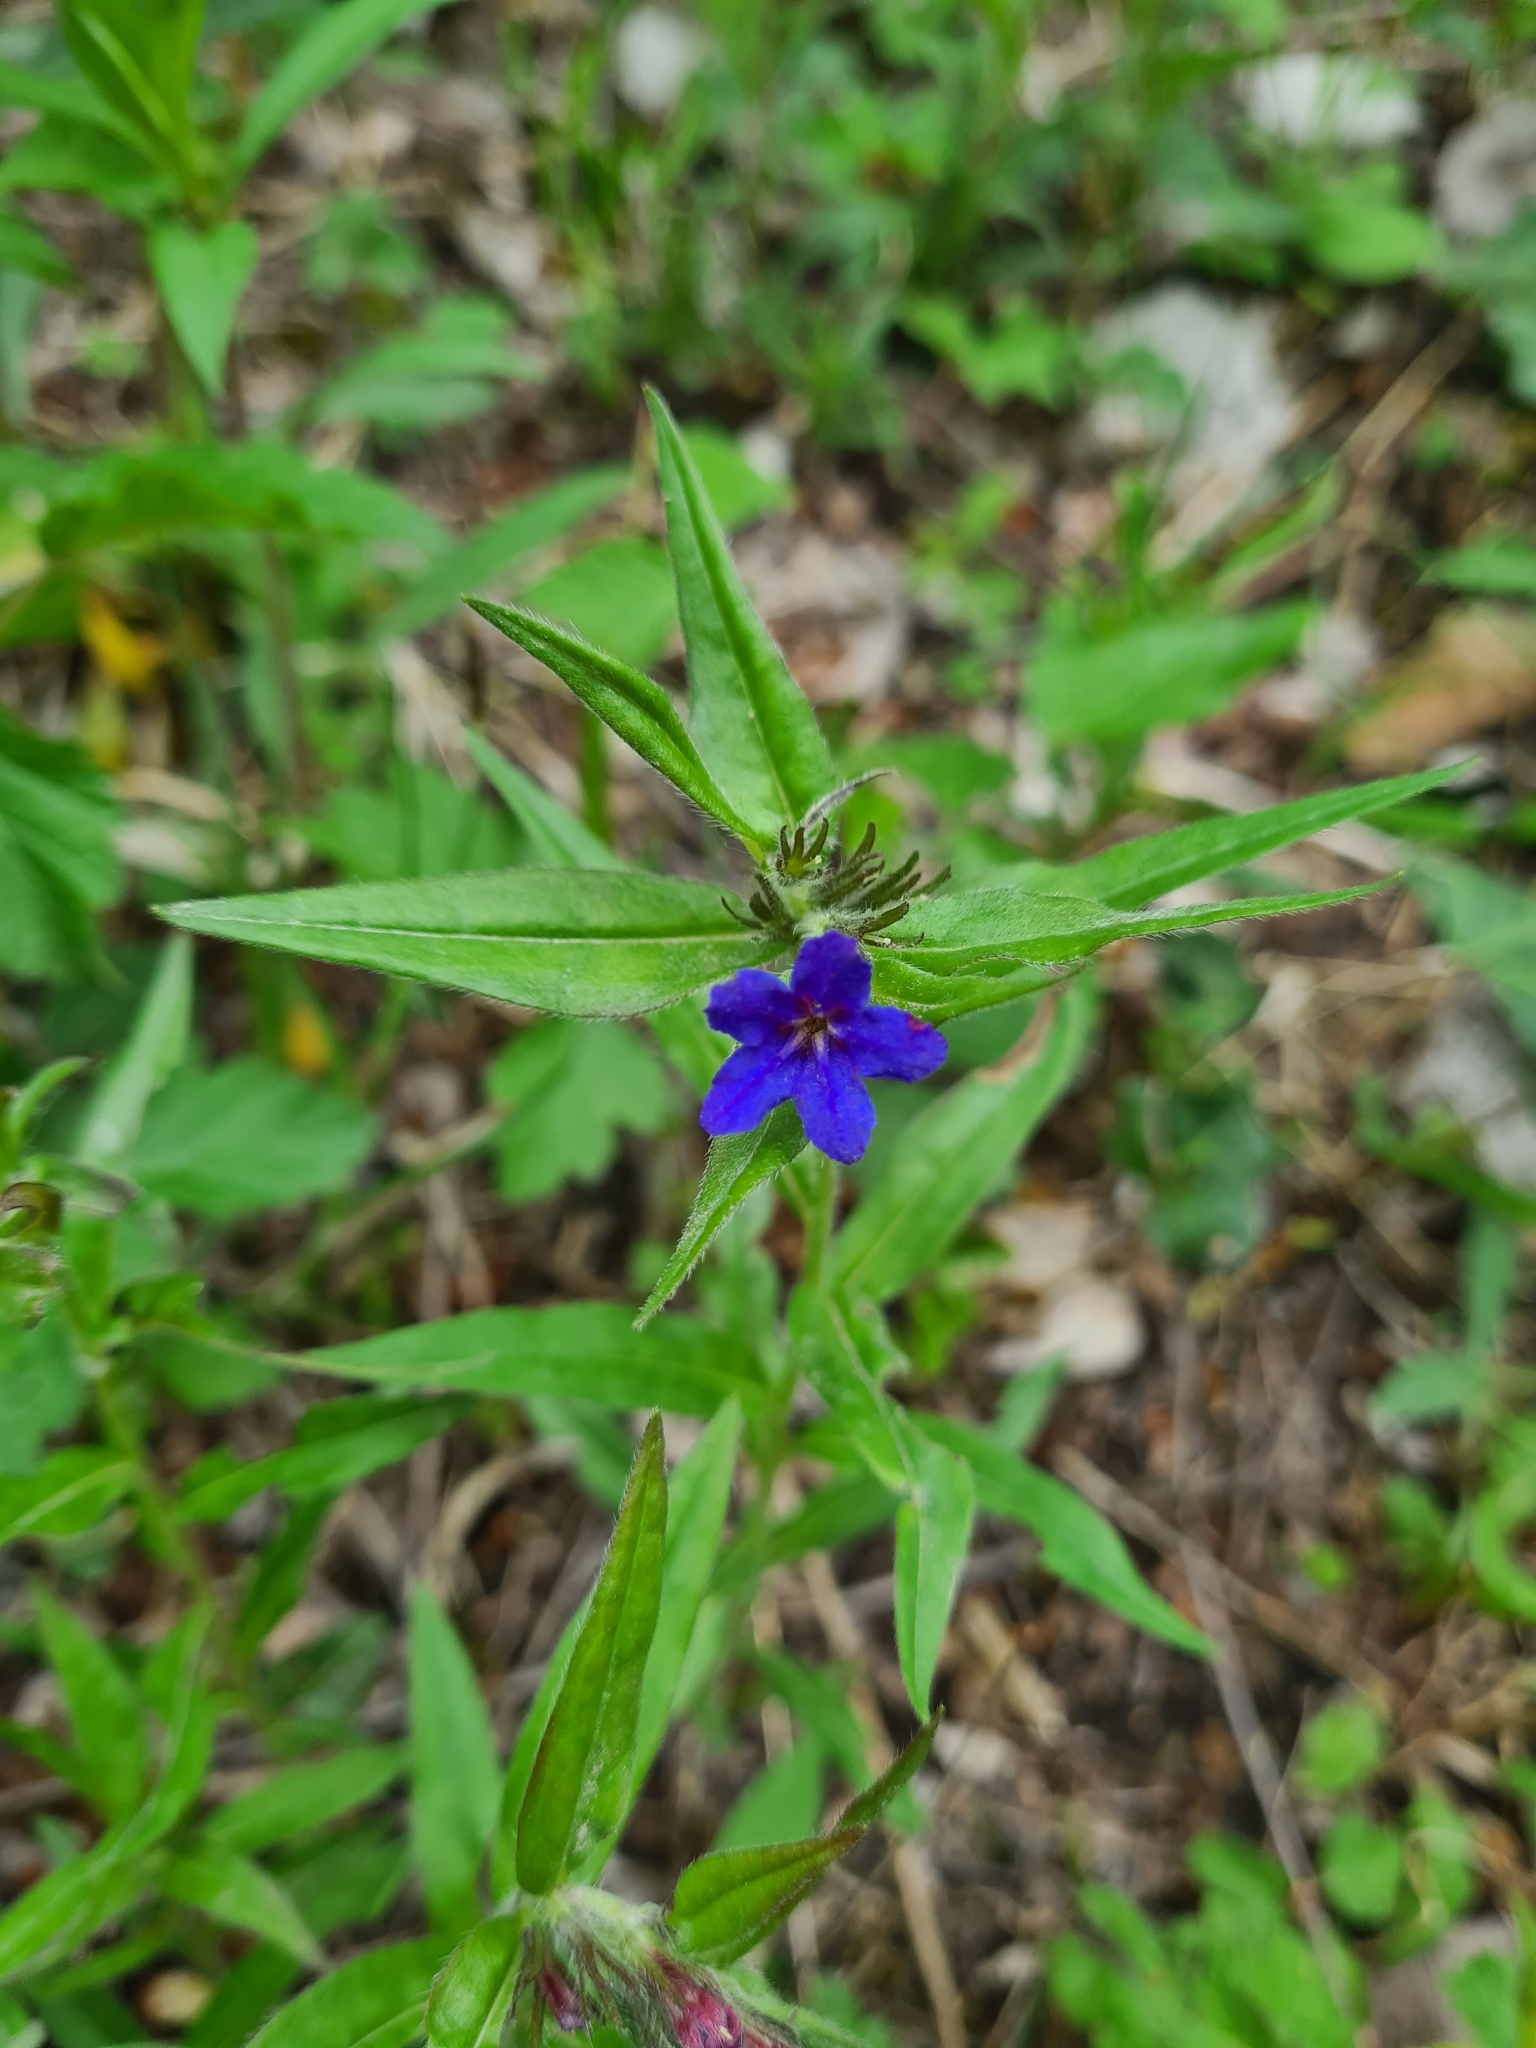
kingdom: Plantae
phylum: Tracheophyta
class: Magnoliopsida
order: Boraginales
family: Boraginaceae
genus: Aegonychon
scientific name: Aegonychon purpurocaeruleum
